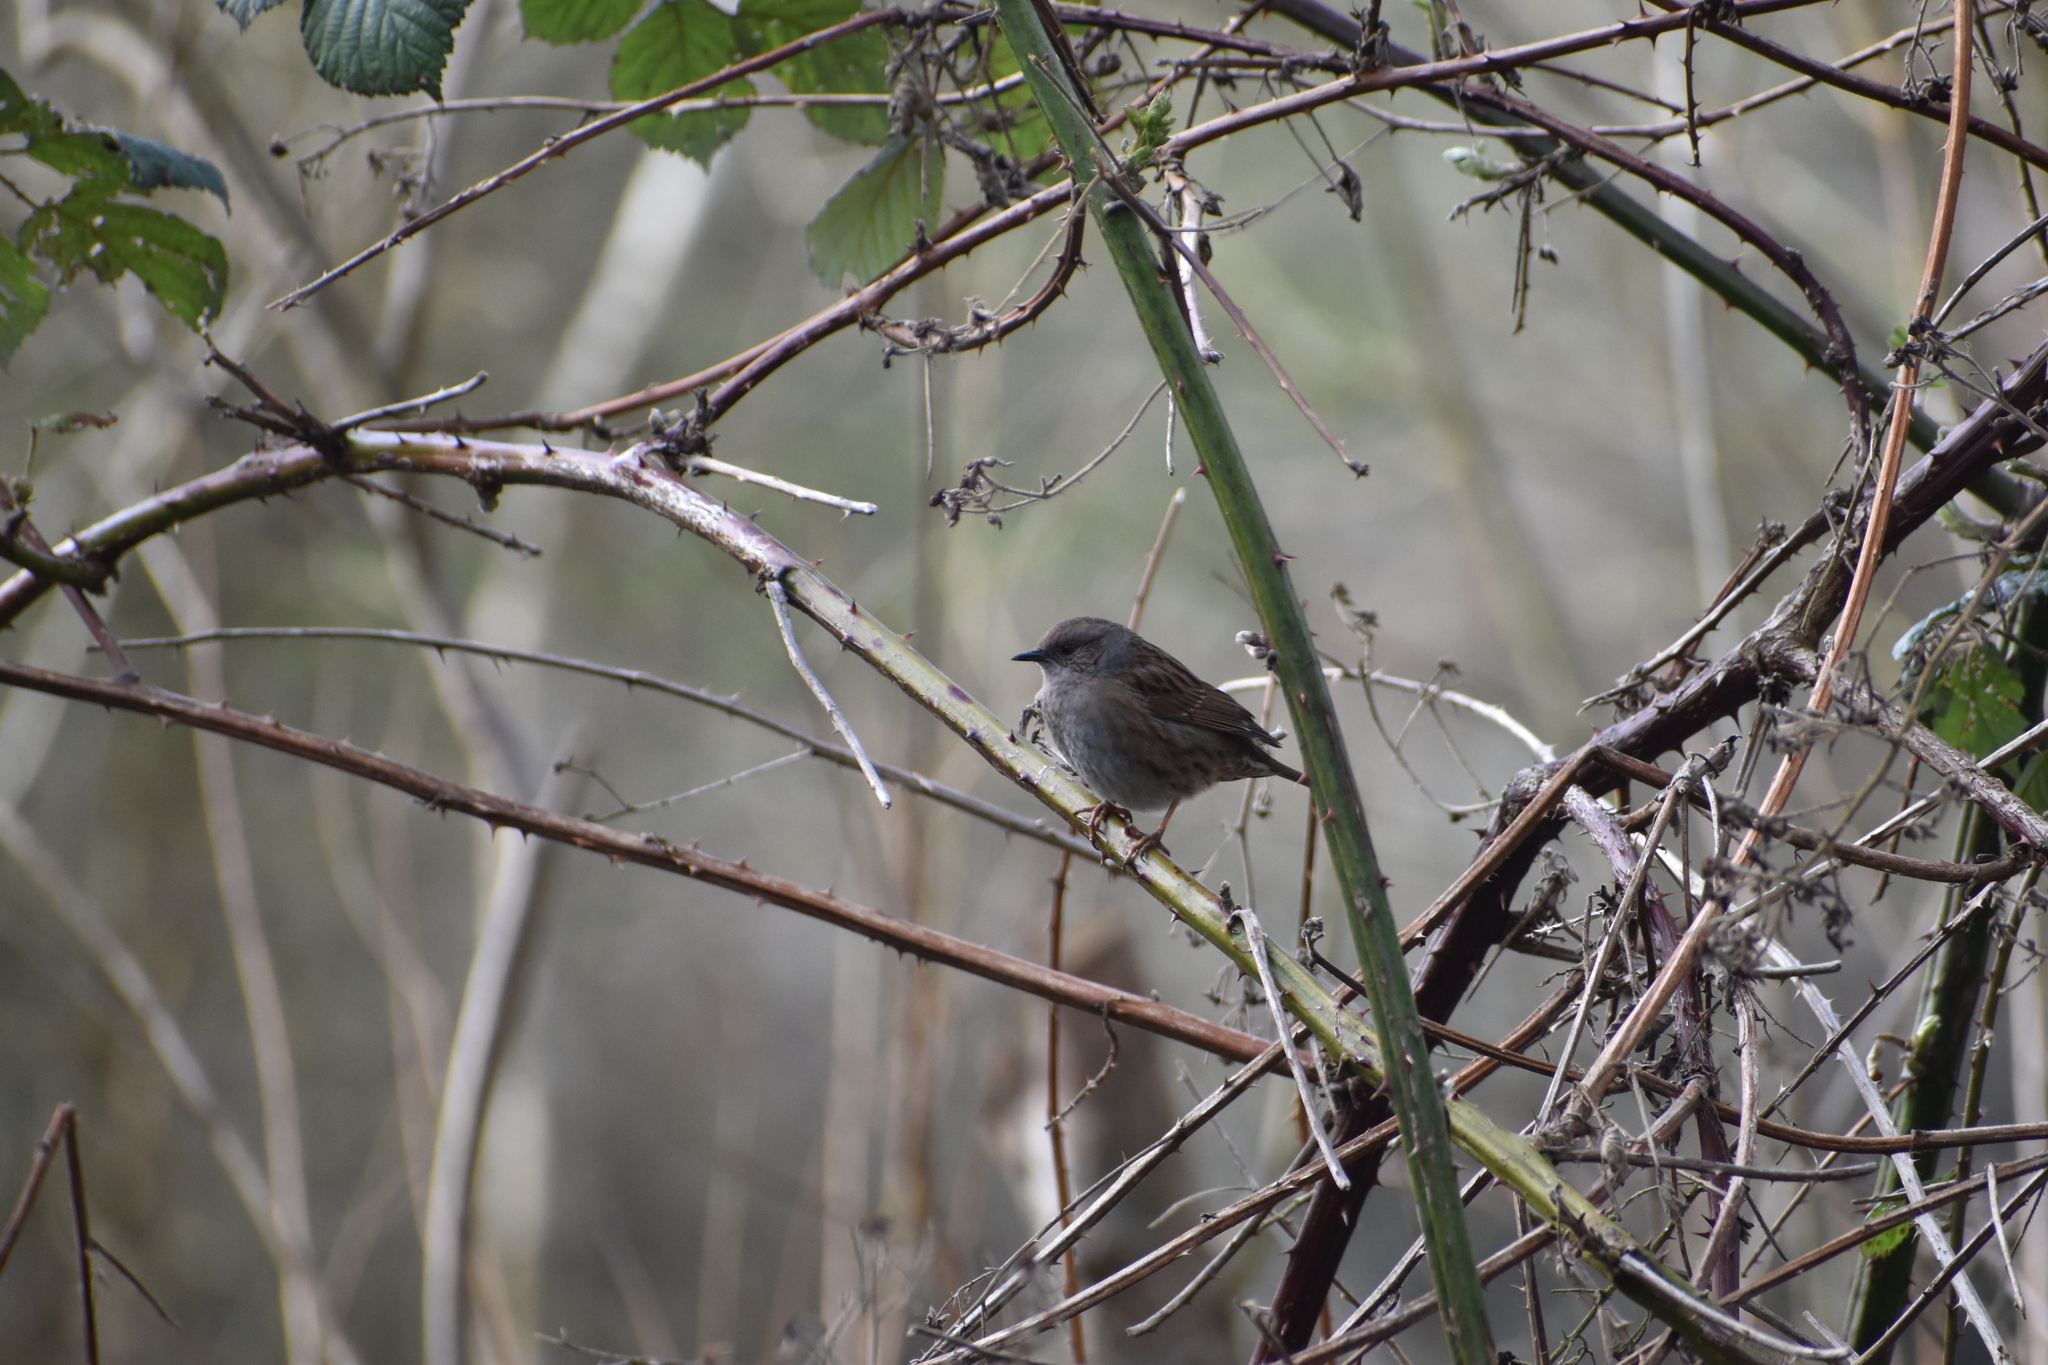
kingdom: Animalia
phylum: Chordata
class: Aves
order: Passeriformes
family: Prunellidae
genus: Prunella
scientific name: Prunella modularis
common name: Dunnock
